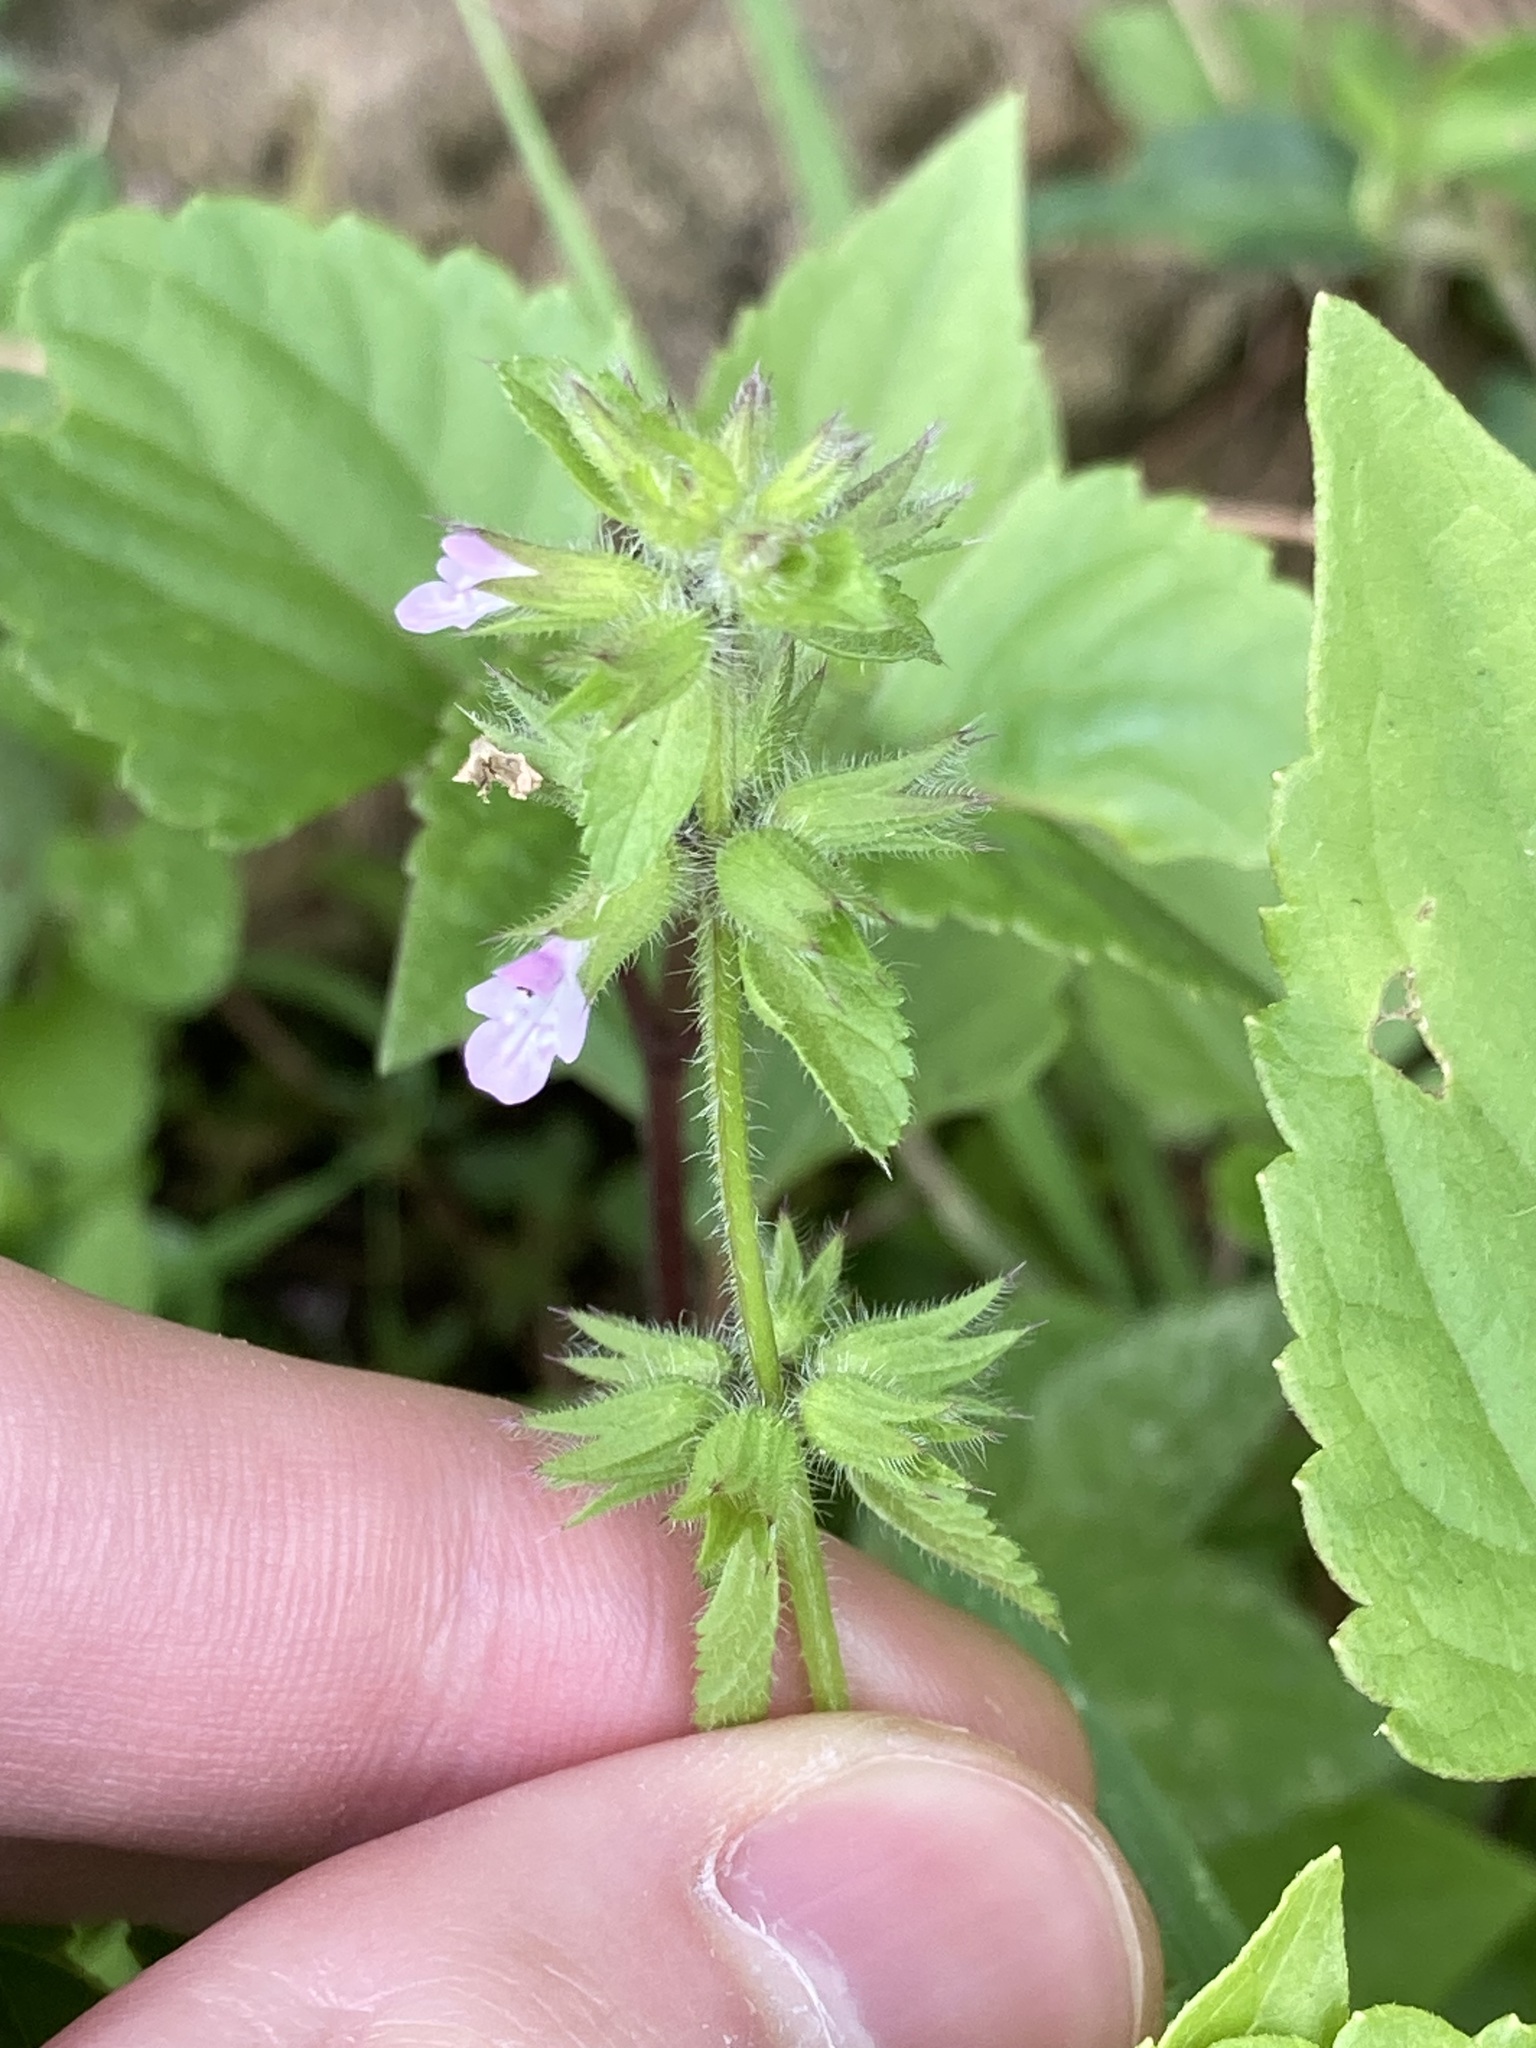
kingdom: Plantae
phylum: Tracheophyta
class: Magnoliopsida
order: Lamiales
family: Lamiaceae
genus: Stachys
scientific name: Stachys arvensis
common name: Field woundwort
